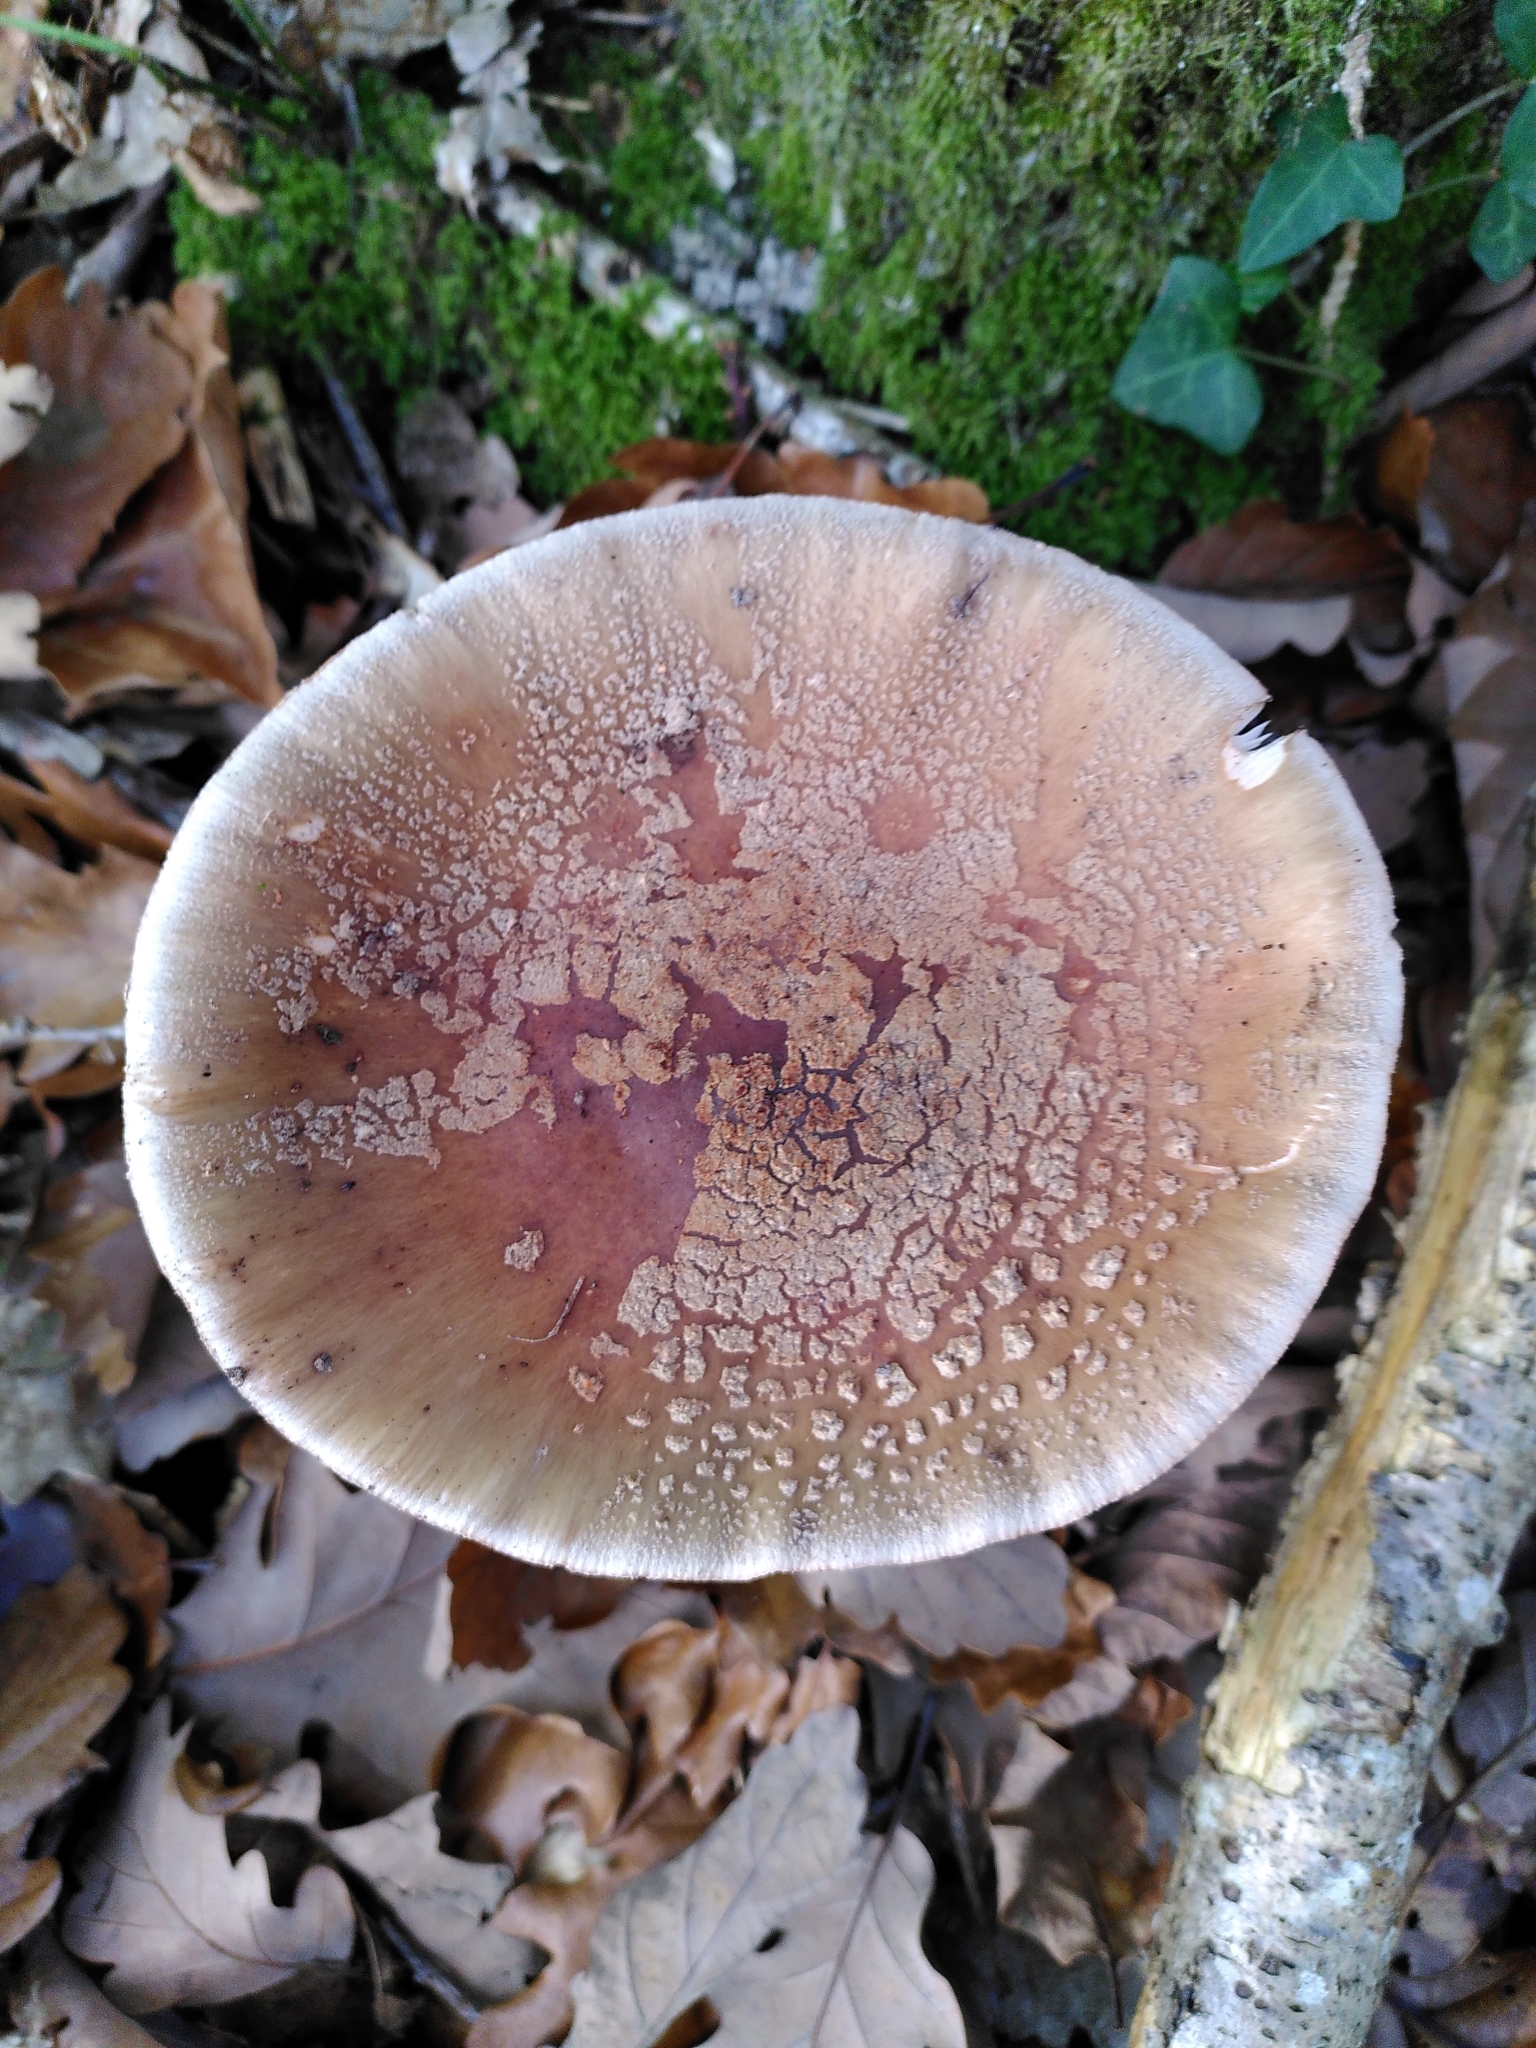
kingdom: Fungi
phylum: Basidiomycota
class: Agaricomycetes
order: Agaricales
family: Amanitaceae
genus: Amanita
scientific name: Amanita rubescens
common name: Blusher
